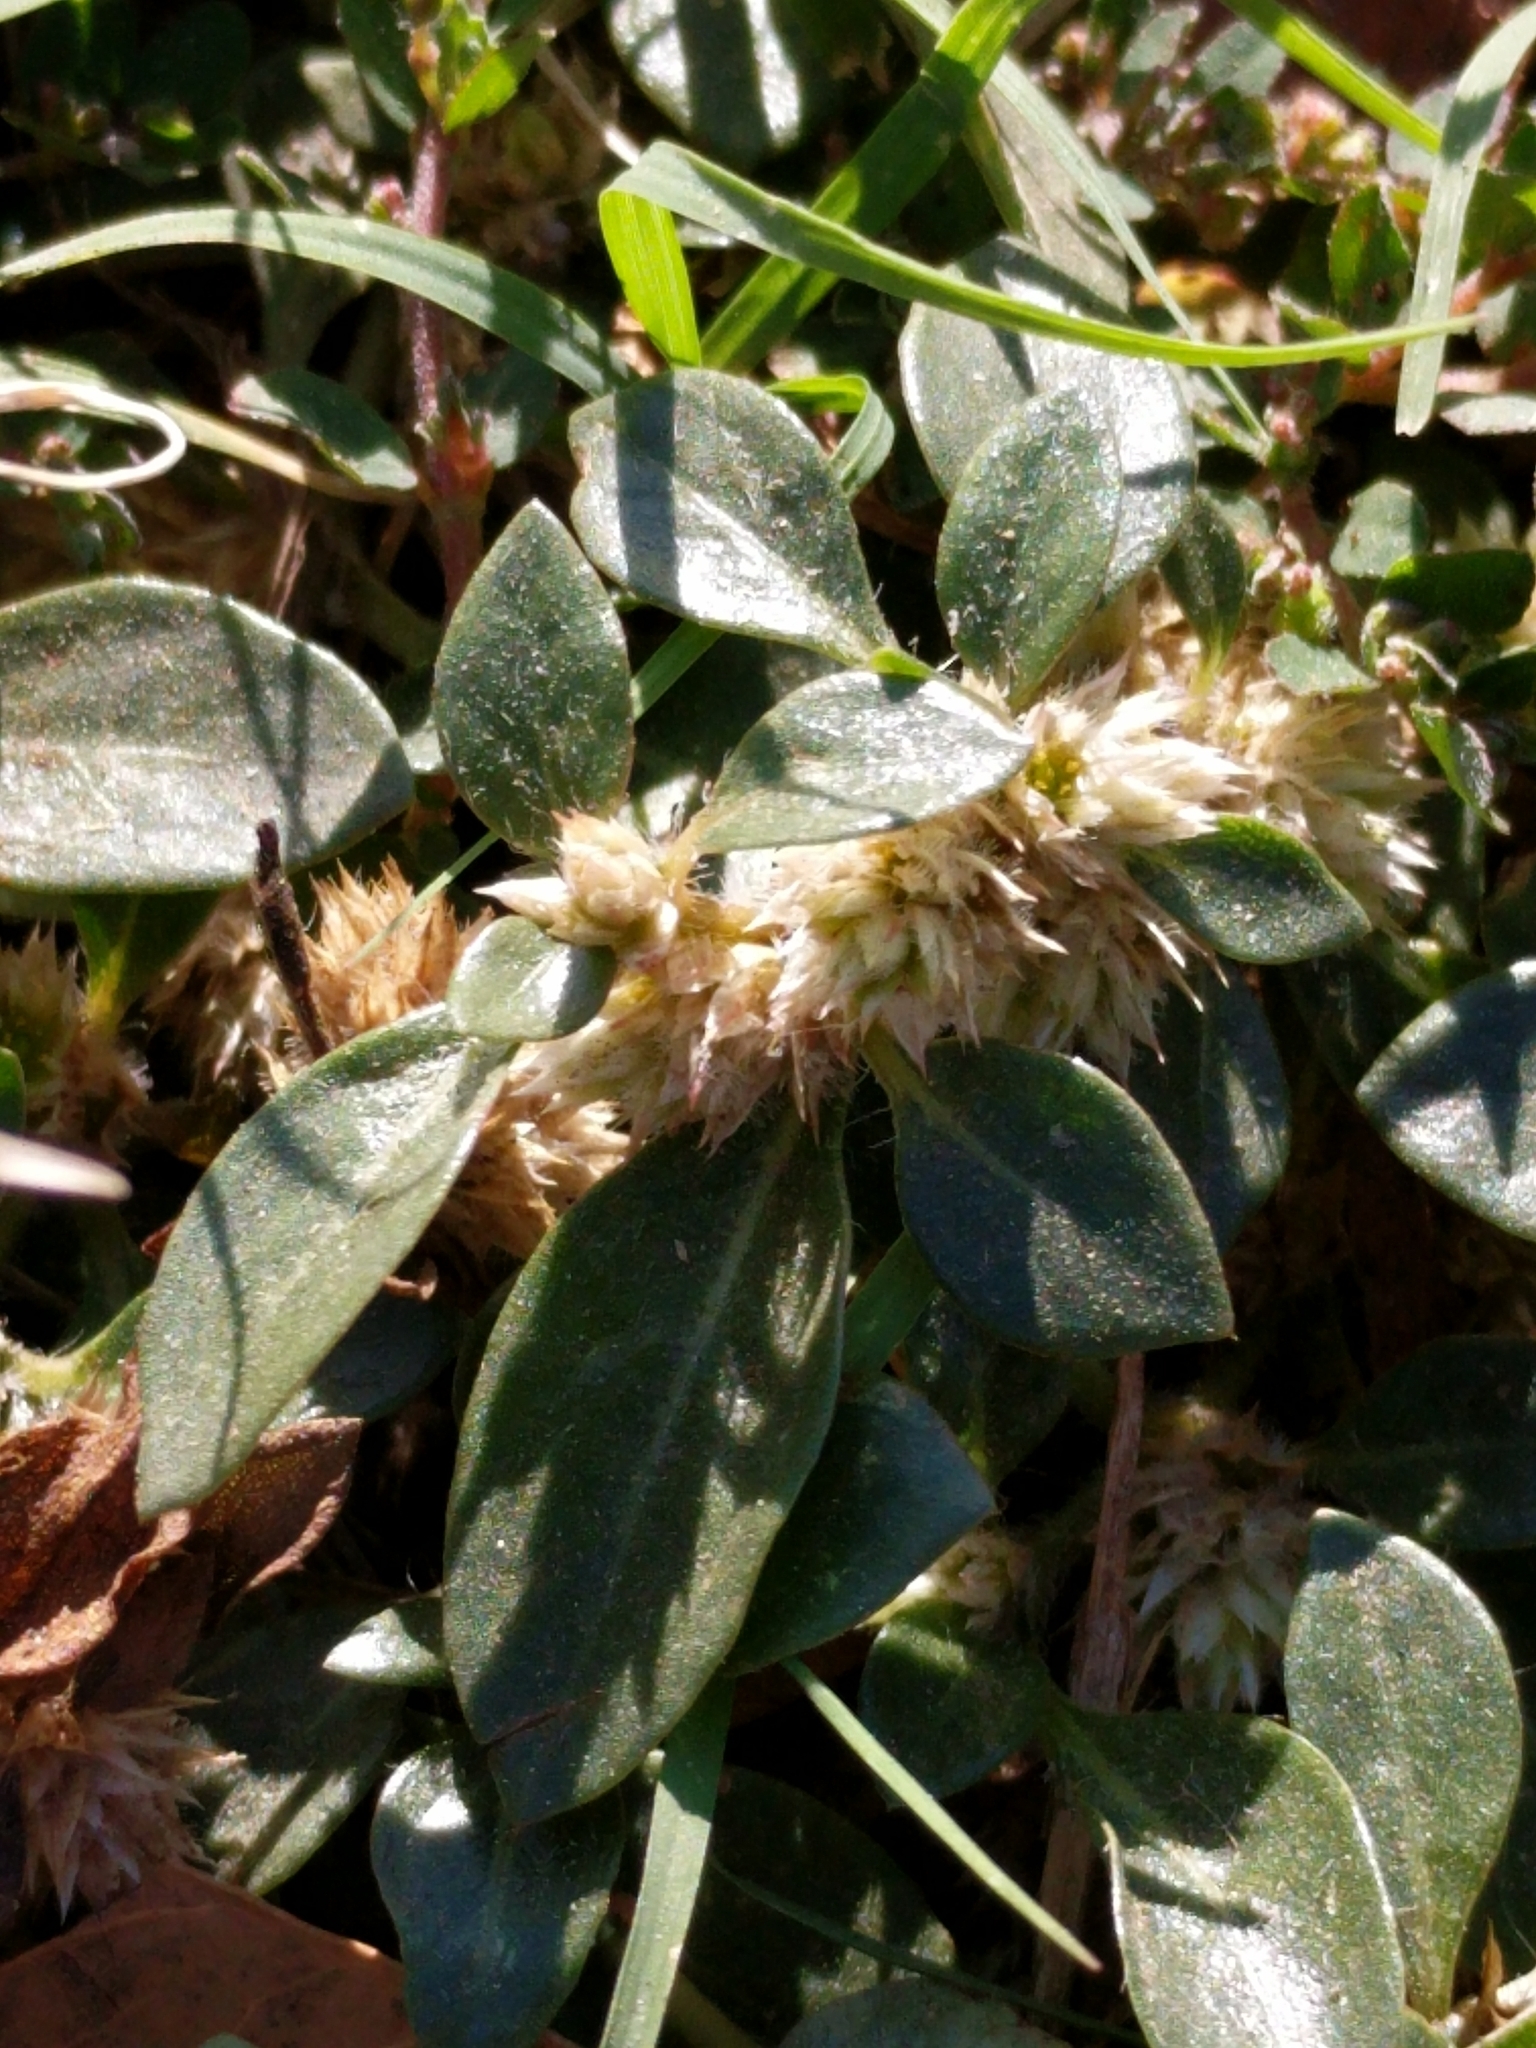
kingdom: Plantae
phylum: Tracheophyta
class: Magnoliopsida
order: Caryophyllales
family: Amaranthaceae
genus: Alternanthera
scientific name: Alternanthera caracasana
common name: Washerwoman
